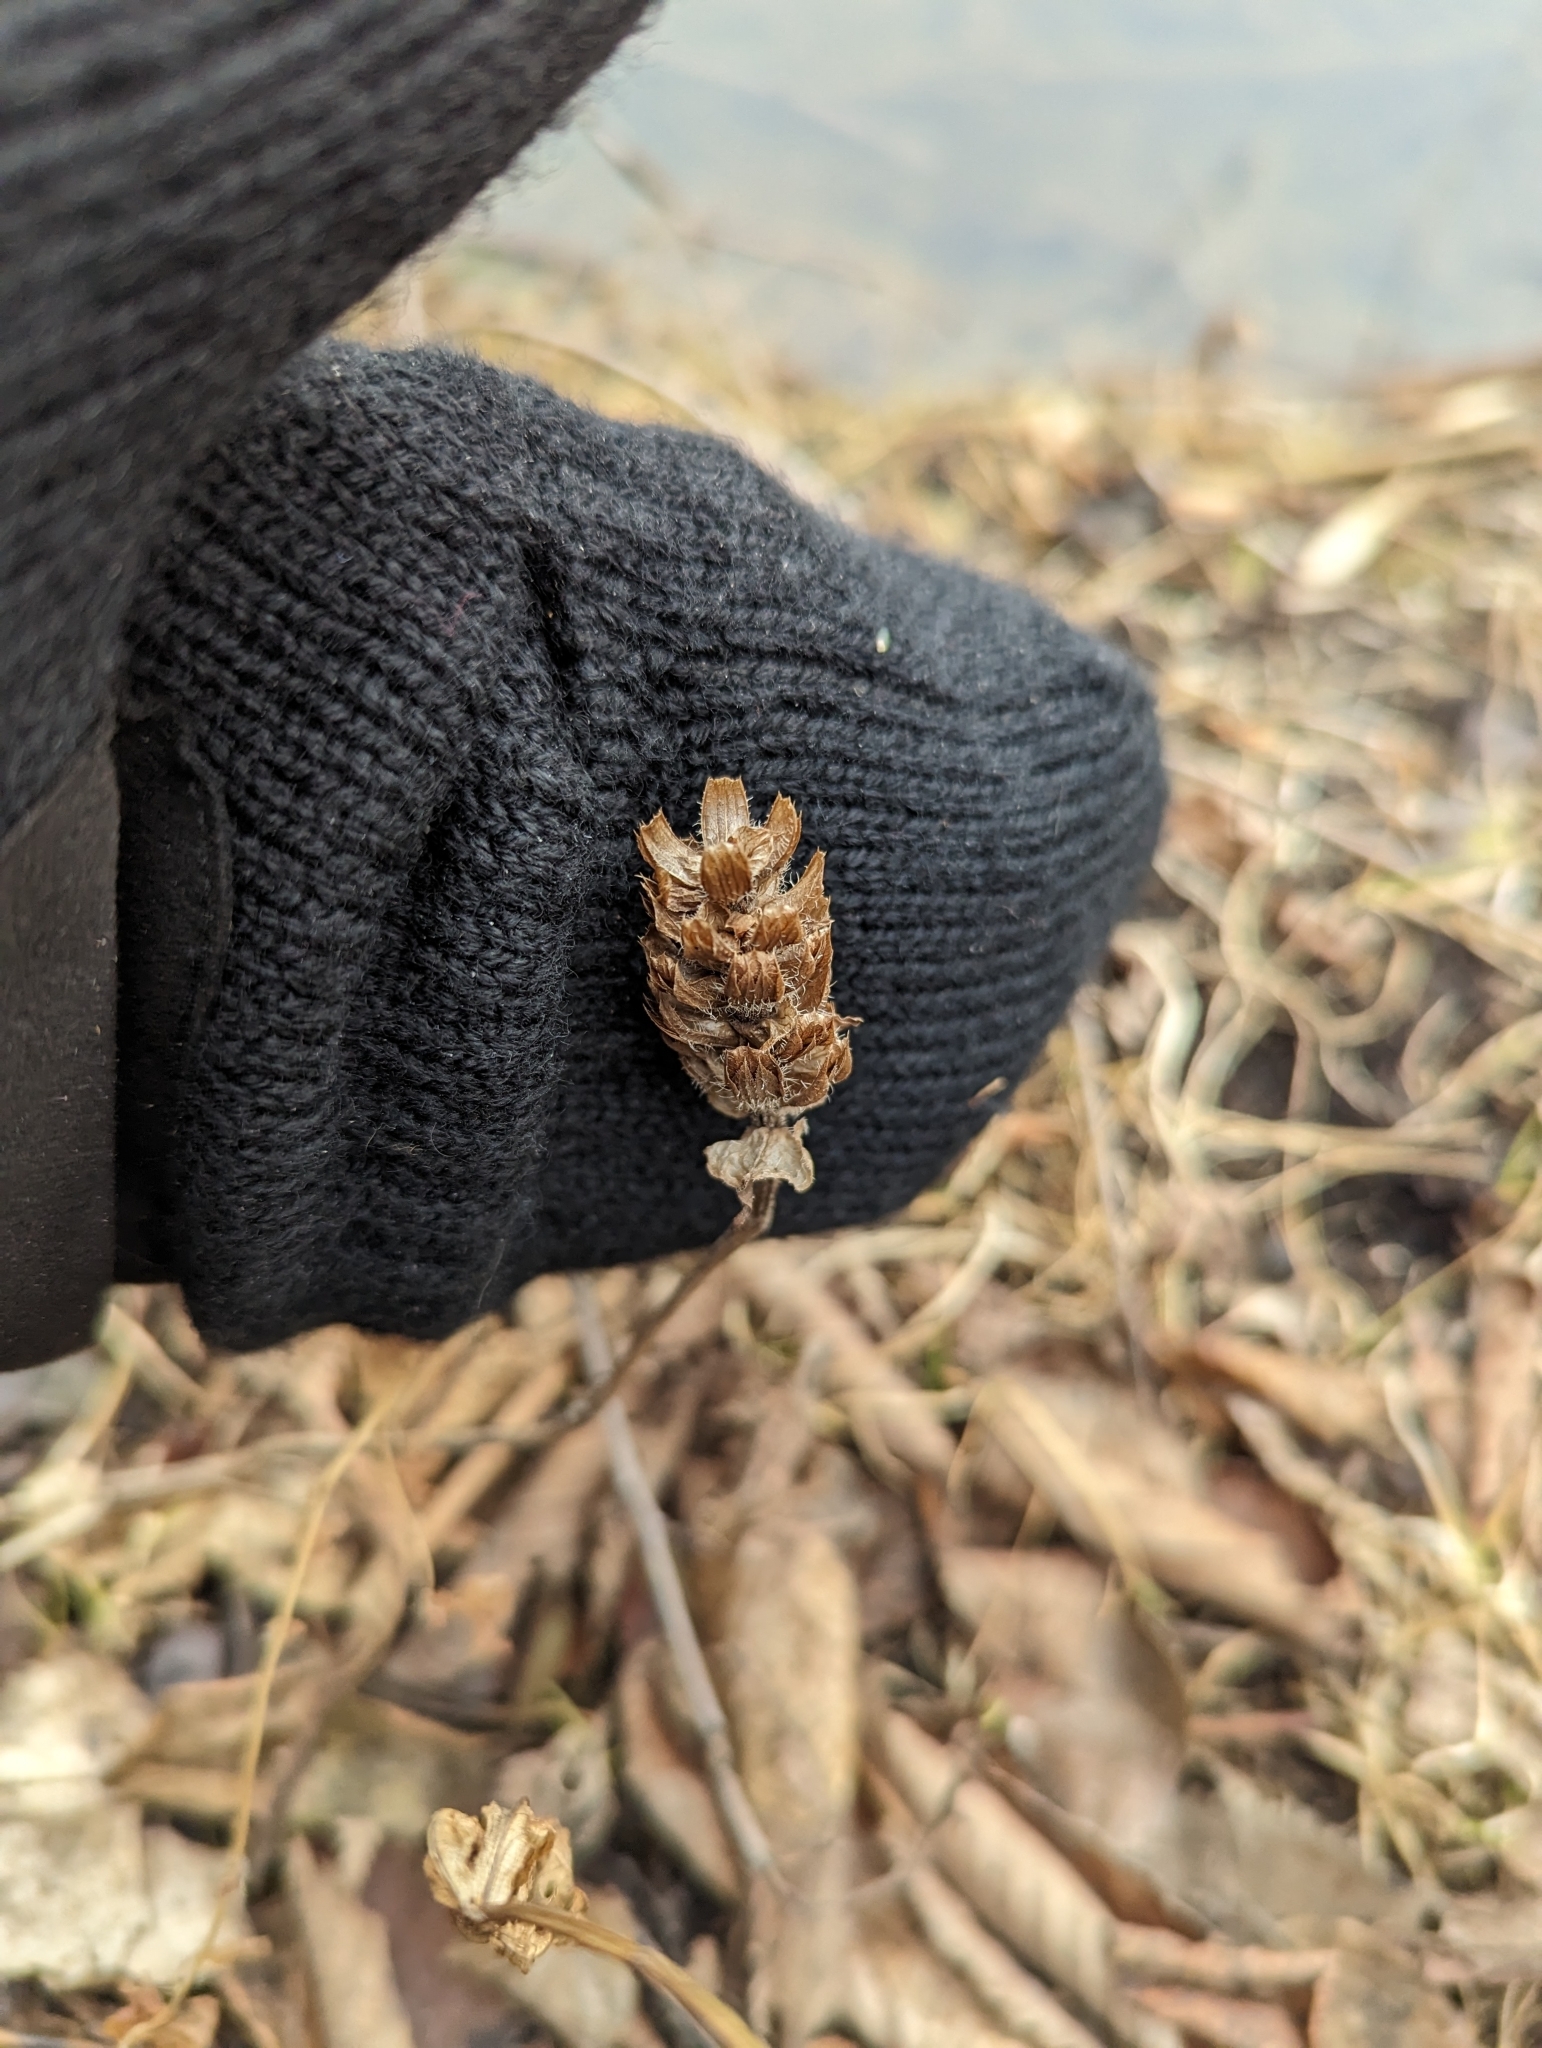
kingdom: Plantae
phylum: Tracheophyta
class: Magnoliopsida
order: Lamiales
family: Lamiaceae
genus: Prunella
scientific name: Prunella vulgaris
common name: Heal-all
